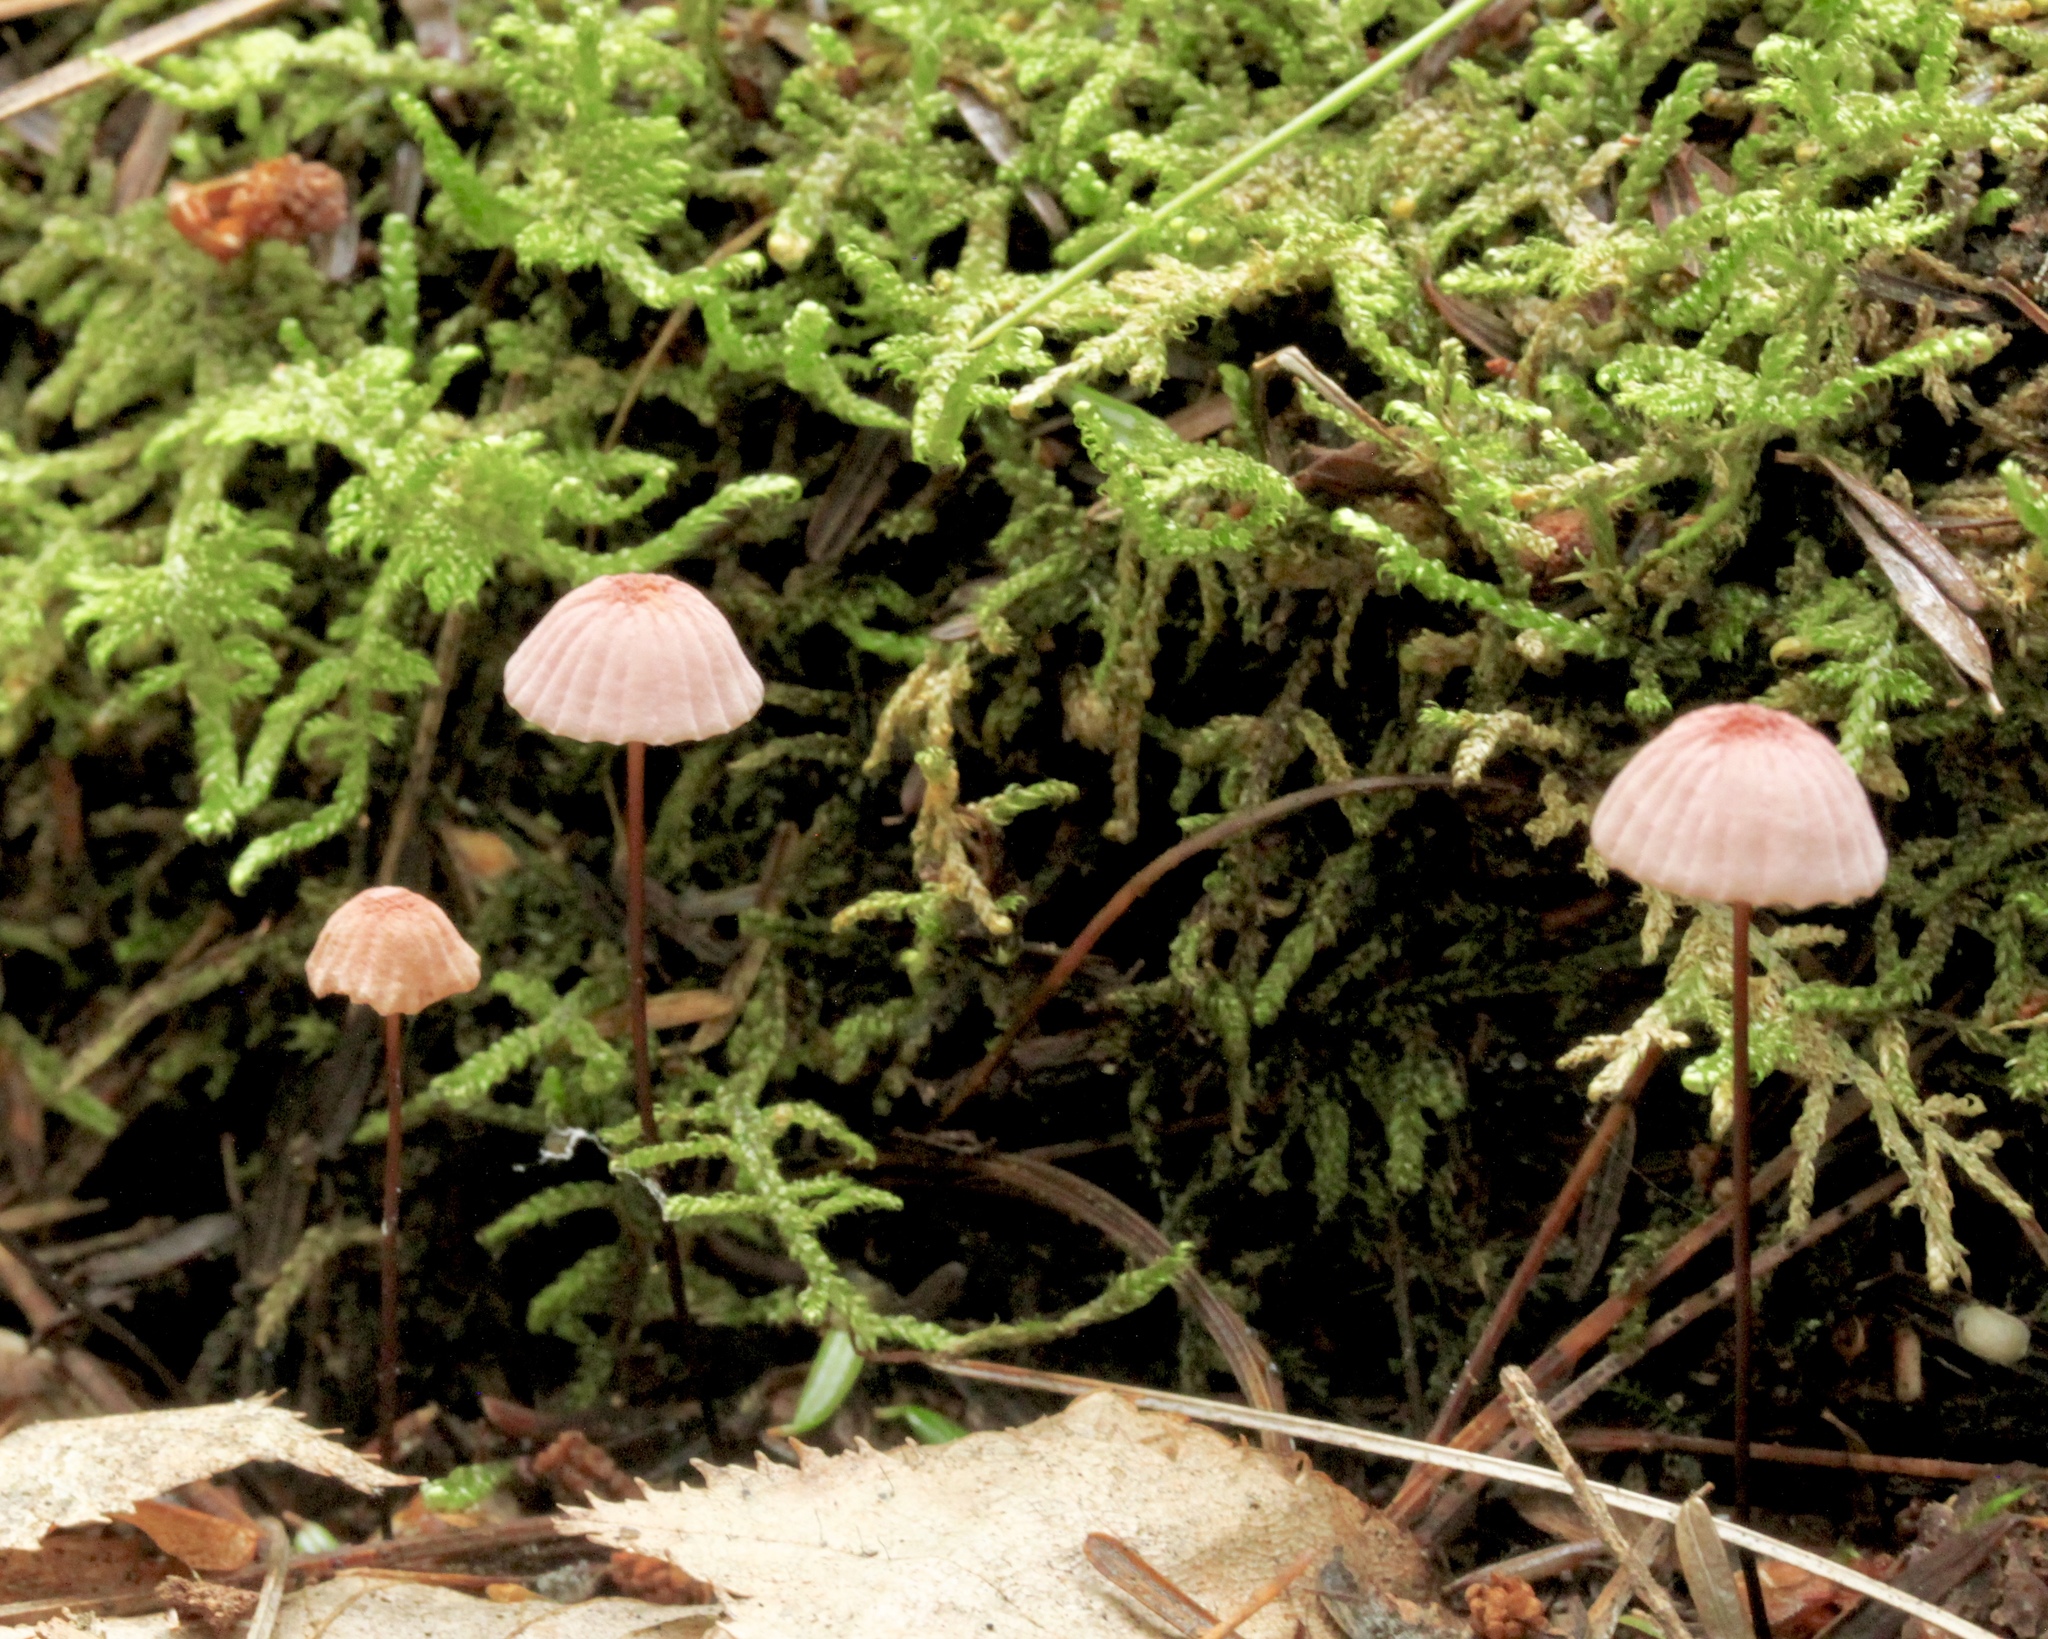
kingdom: Fungi
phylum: Basidiomycota
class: Agaricomycetes
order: Agaricales
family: Marasmiaceae
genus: Marasmius
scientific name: Marasmius pulcherripes
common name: Rosy parachute
